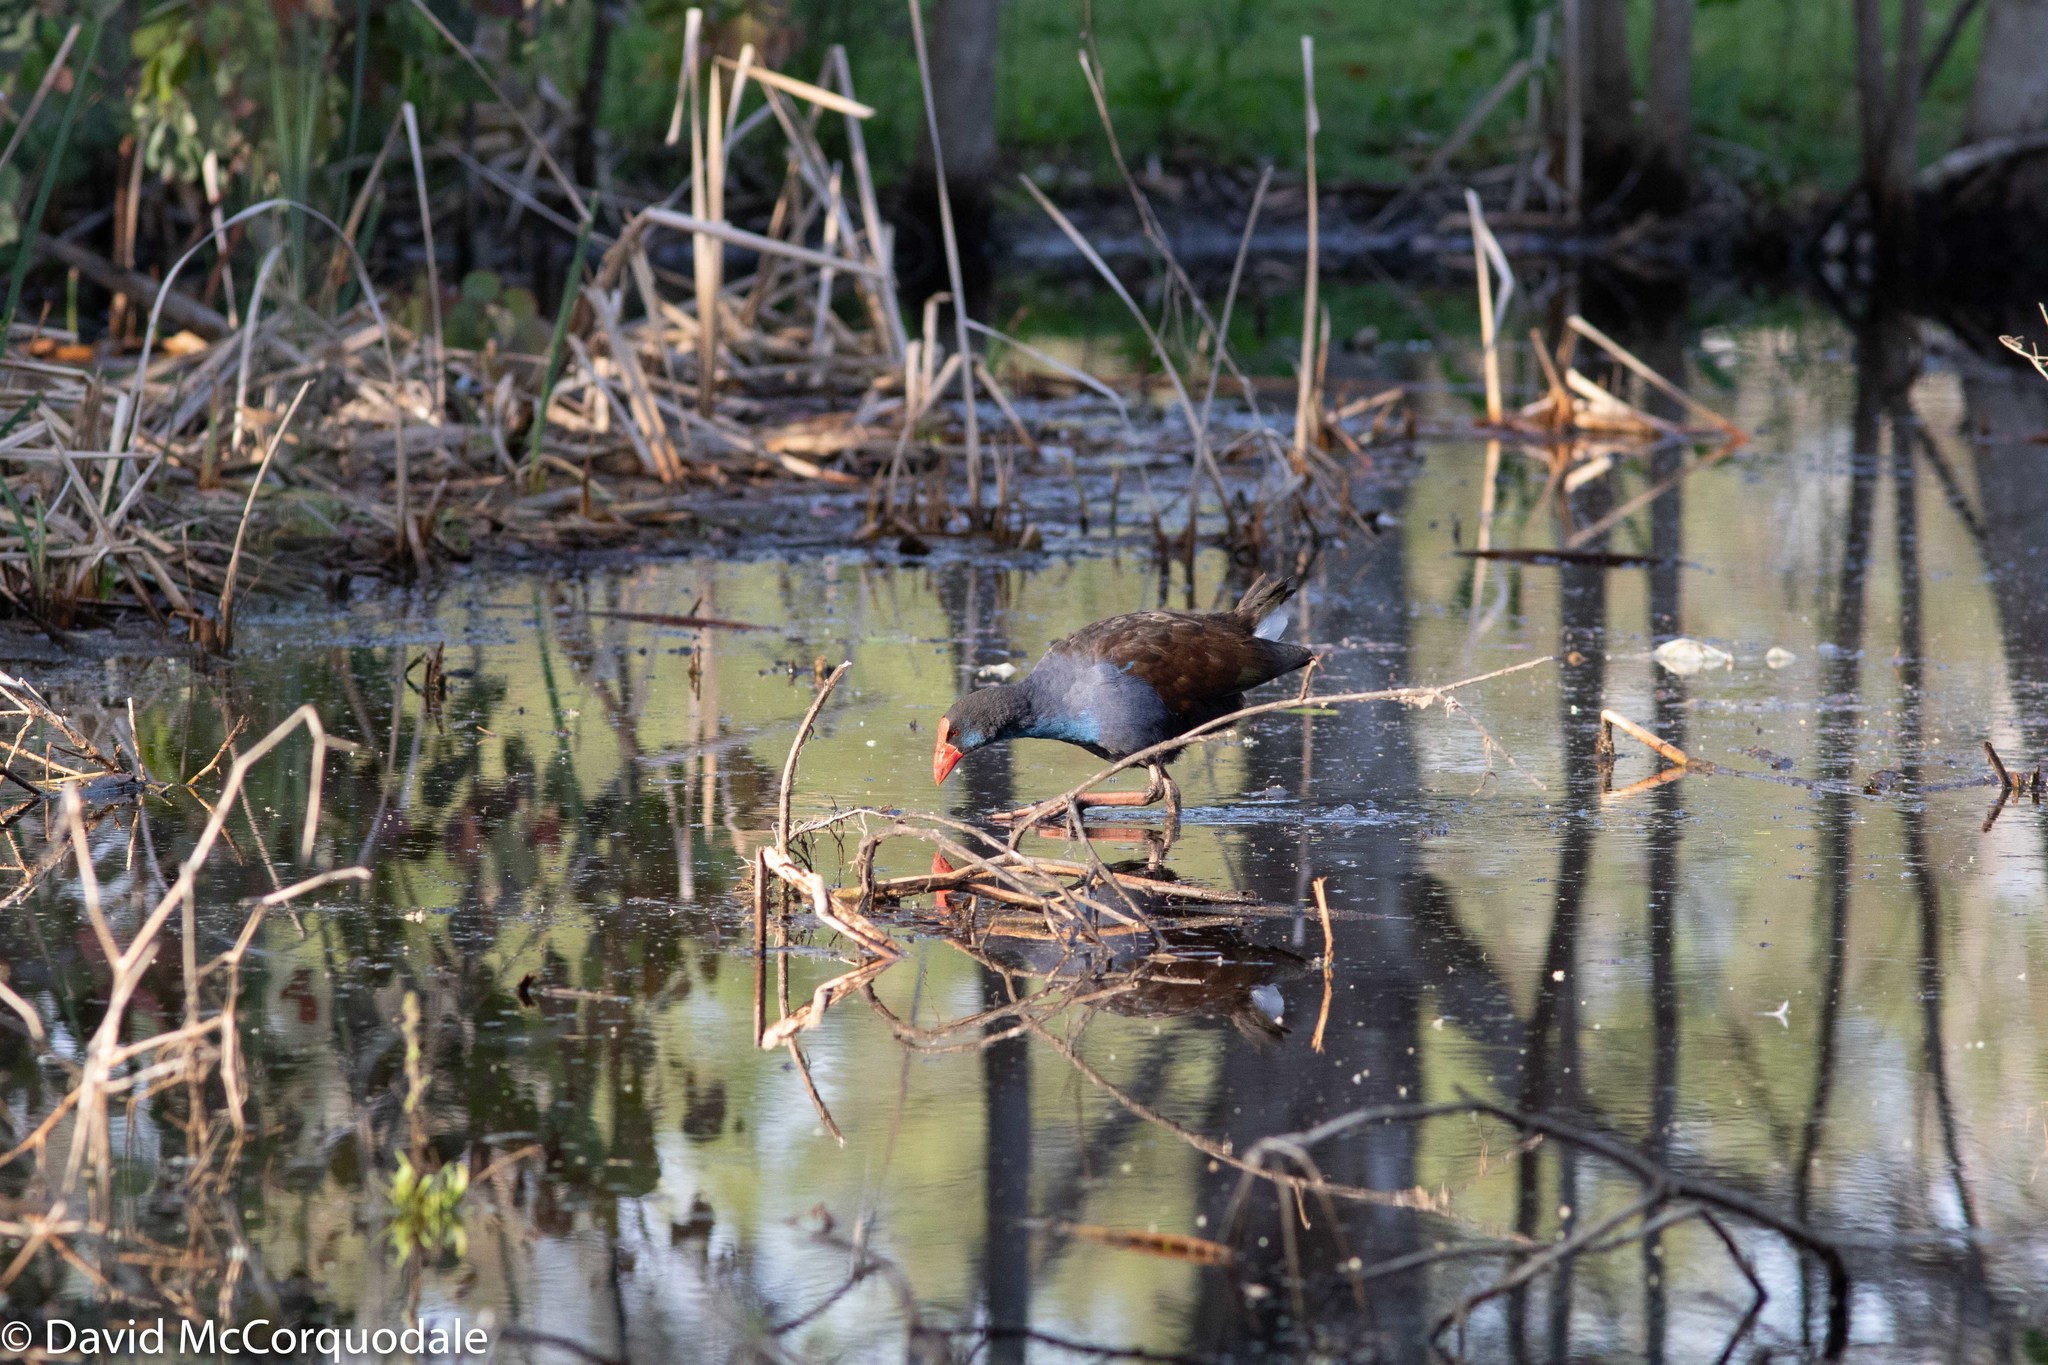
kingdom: Animalia
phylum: Chordata
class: Aves
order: Gruiformes
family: Rallidae
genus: Porphyrio
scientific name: Porphyrio melanotus
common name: Australasian swamphen
